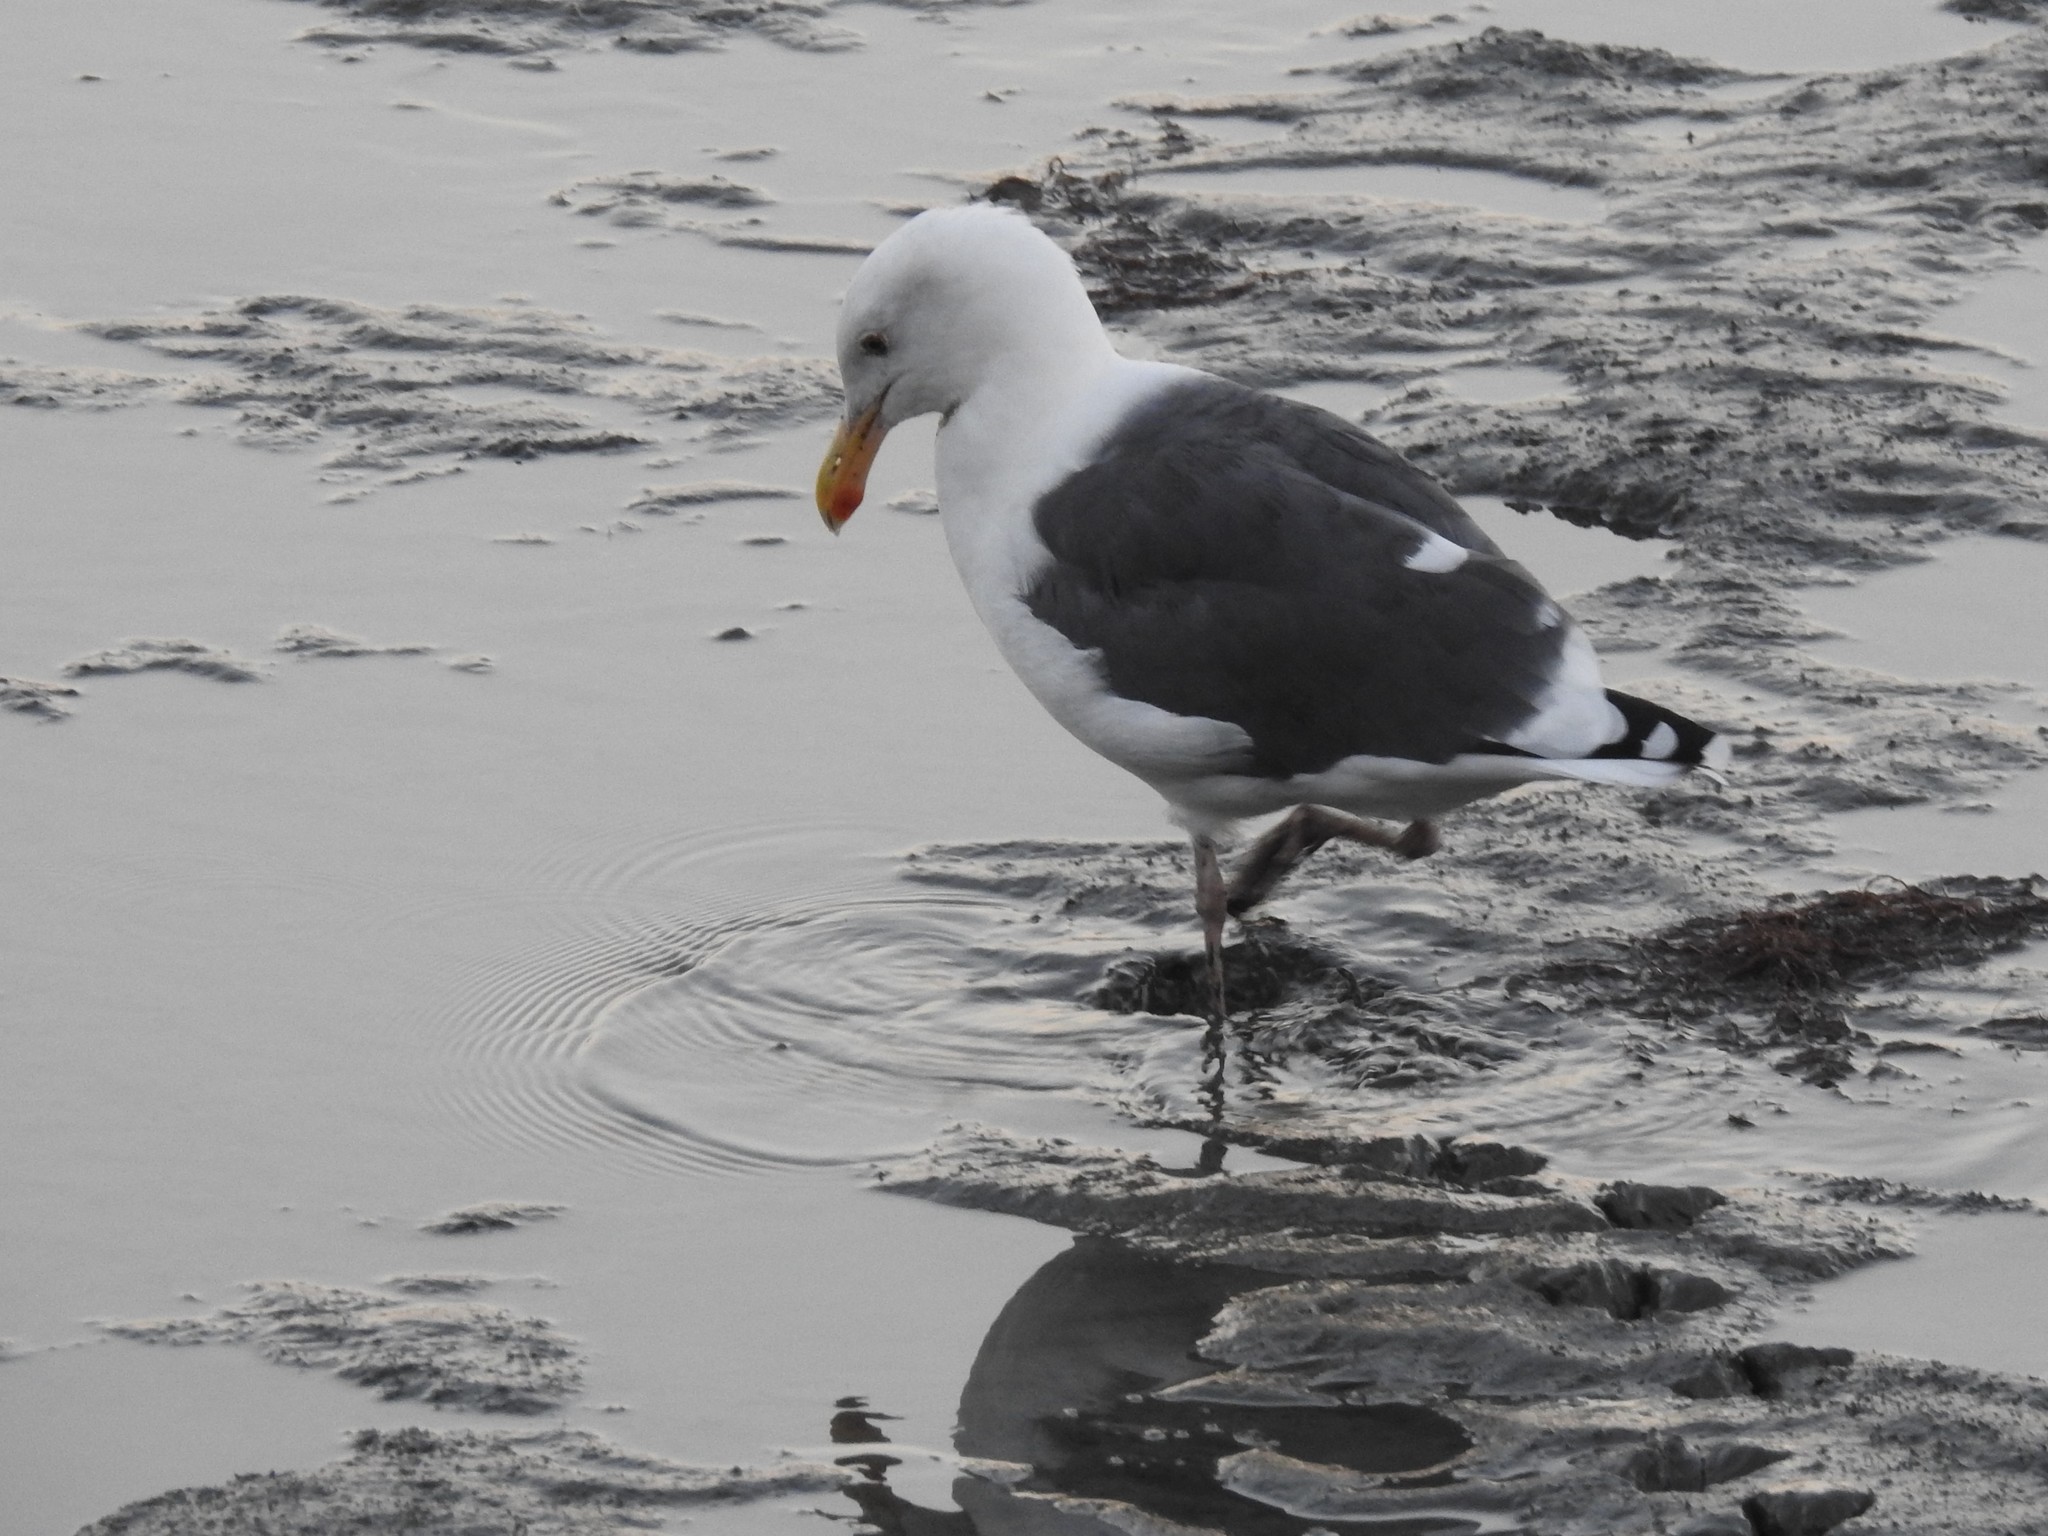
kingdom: Animalia
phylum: Chordata
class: Aves
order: Charadriiformes
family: Laridae
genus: Larus
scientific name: Larus occidentalis
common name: Western gull
